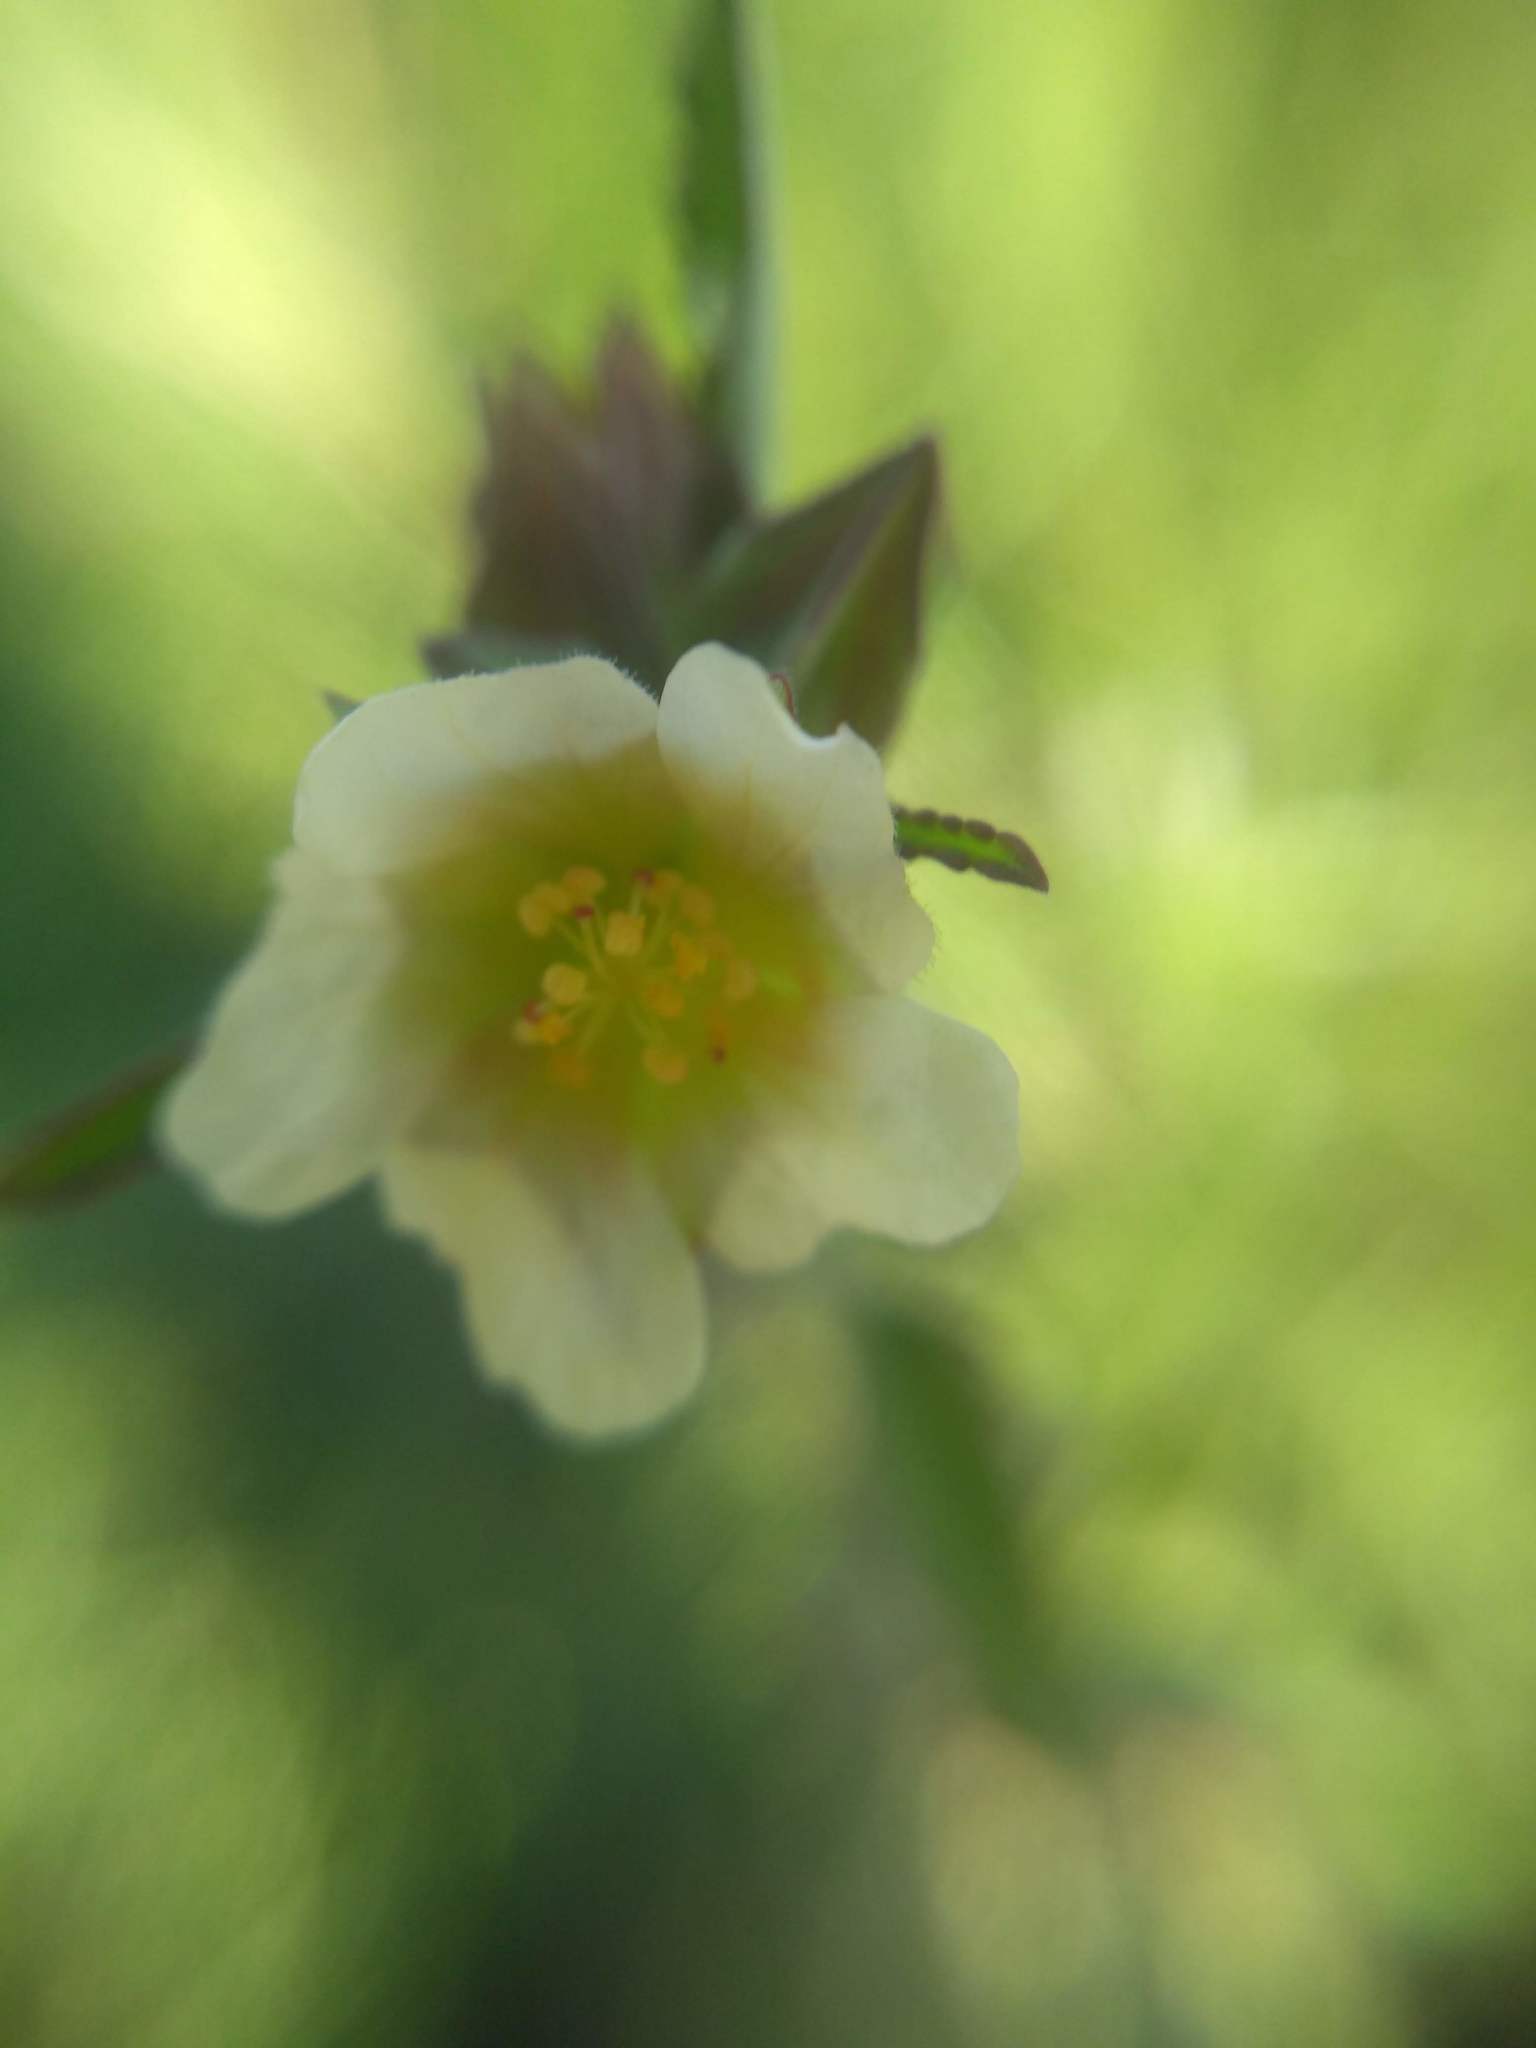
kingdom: Plantae
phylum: Tracheophyta
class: Magnoliopsida
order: Malvales
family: Malvaceae
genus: Sida
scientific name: Sida rhombifolia
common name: Queensland-hemp
